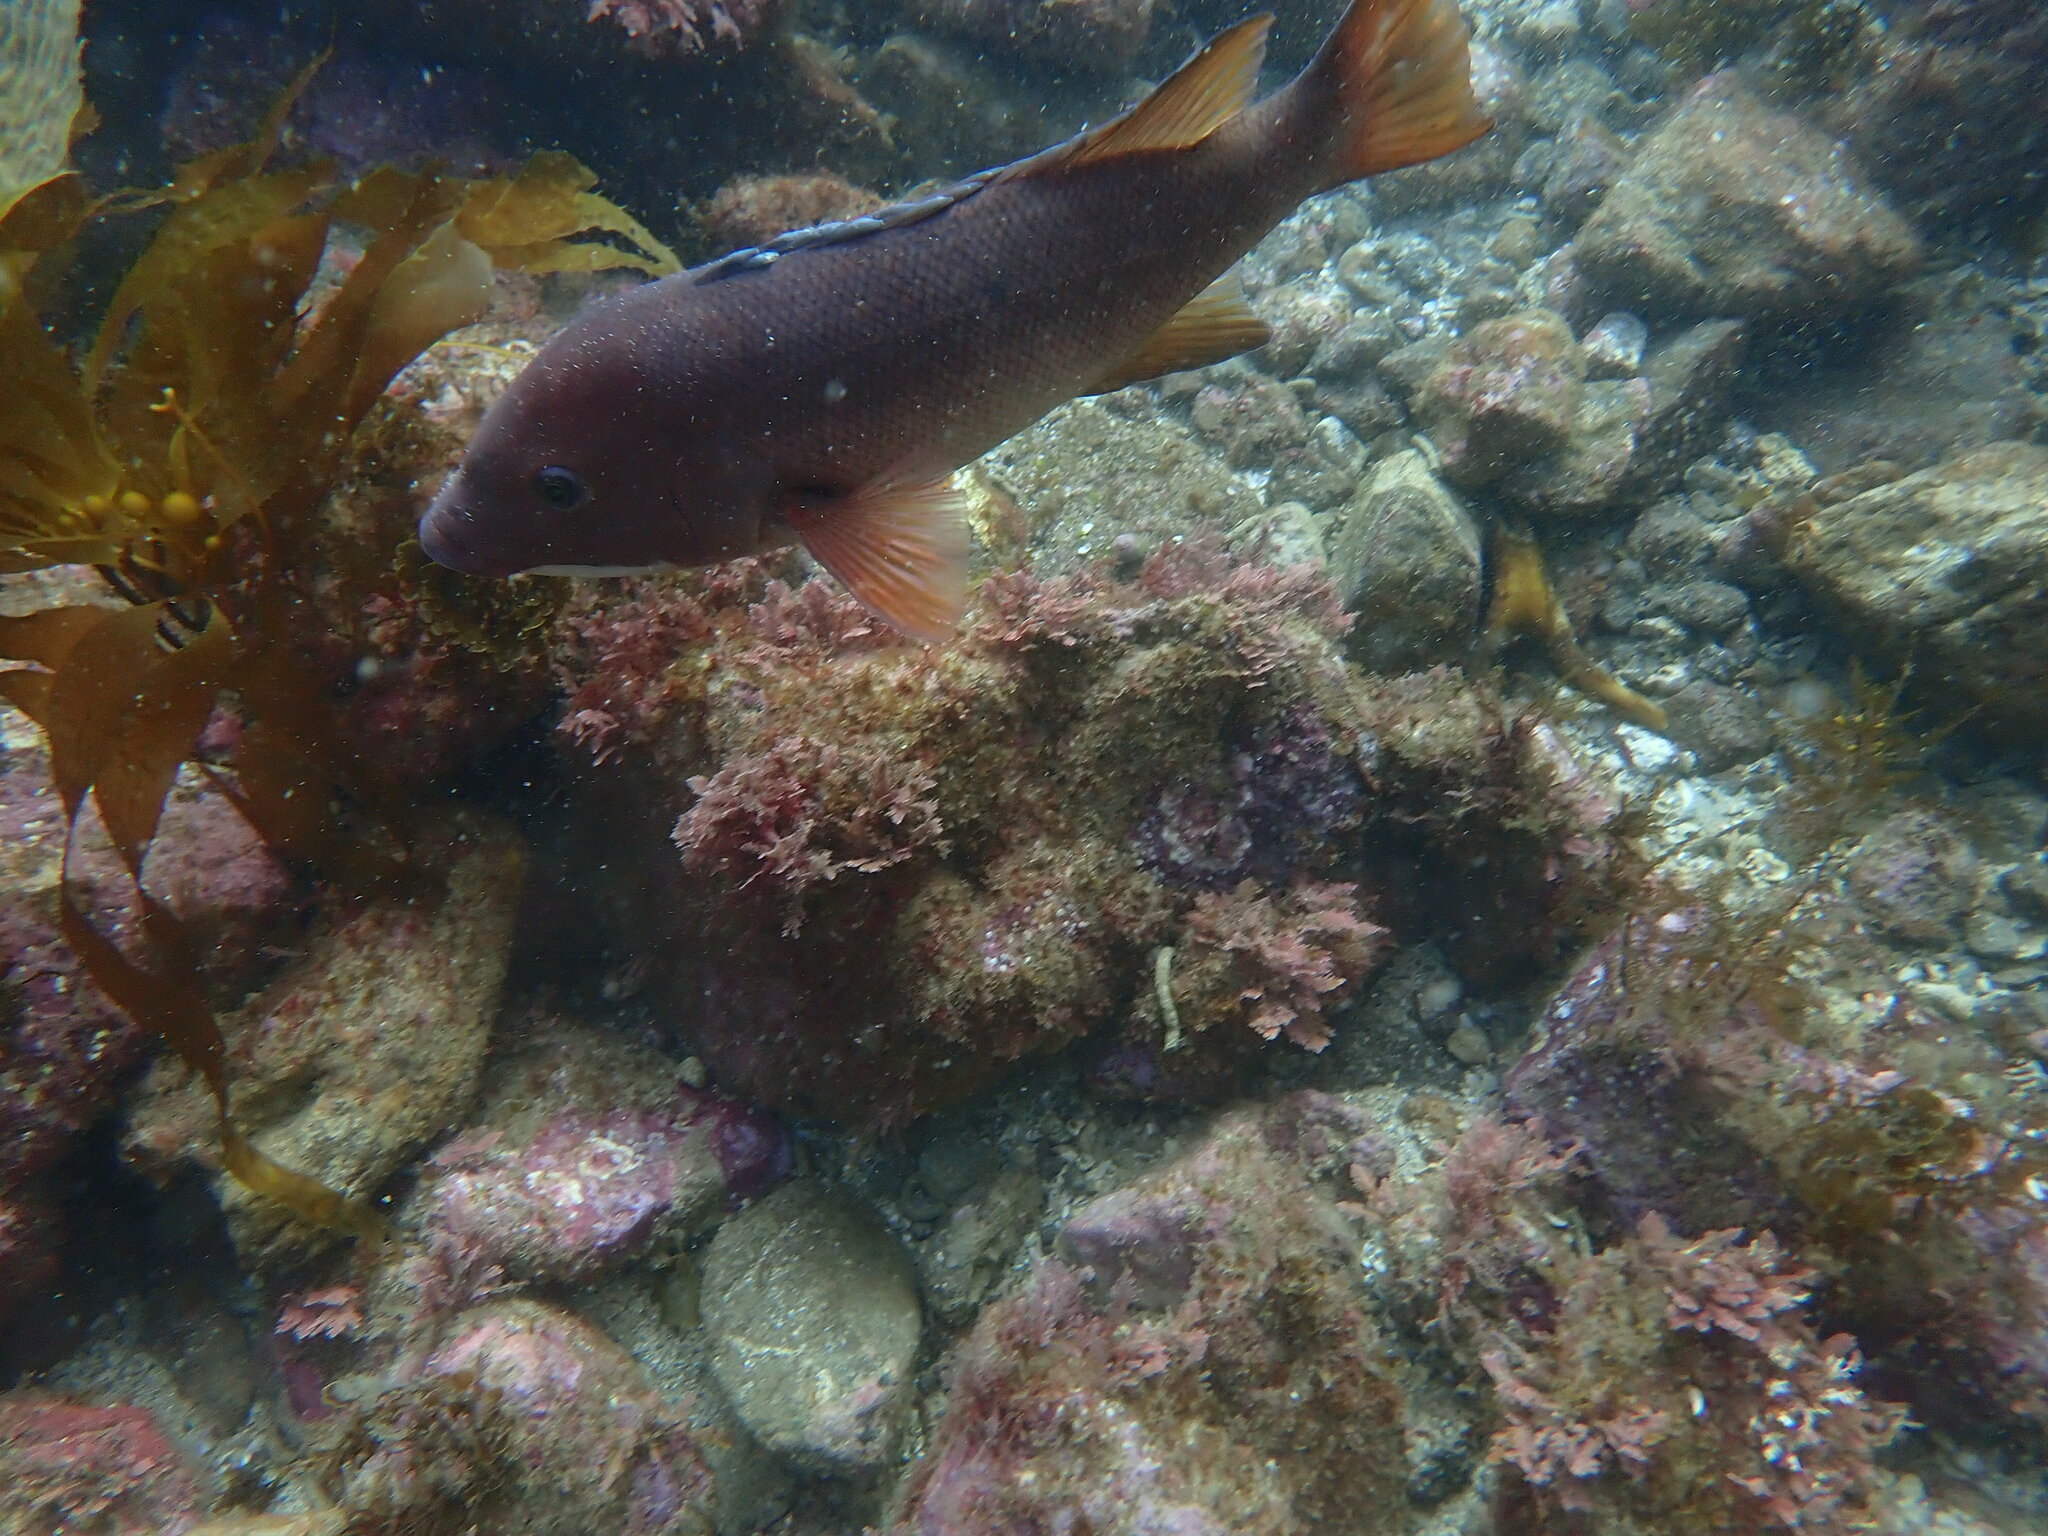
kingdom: Animalia
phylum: Chordata
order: Perciformes
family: Labridae
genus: Semicossyphus
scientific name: Semicossyphus pulcher
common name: California sheephead
